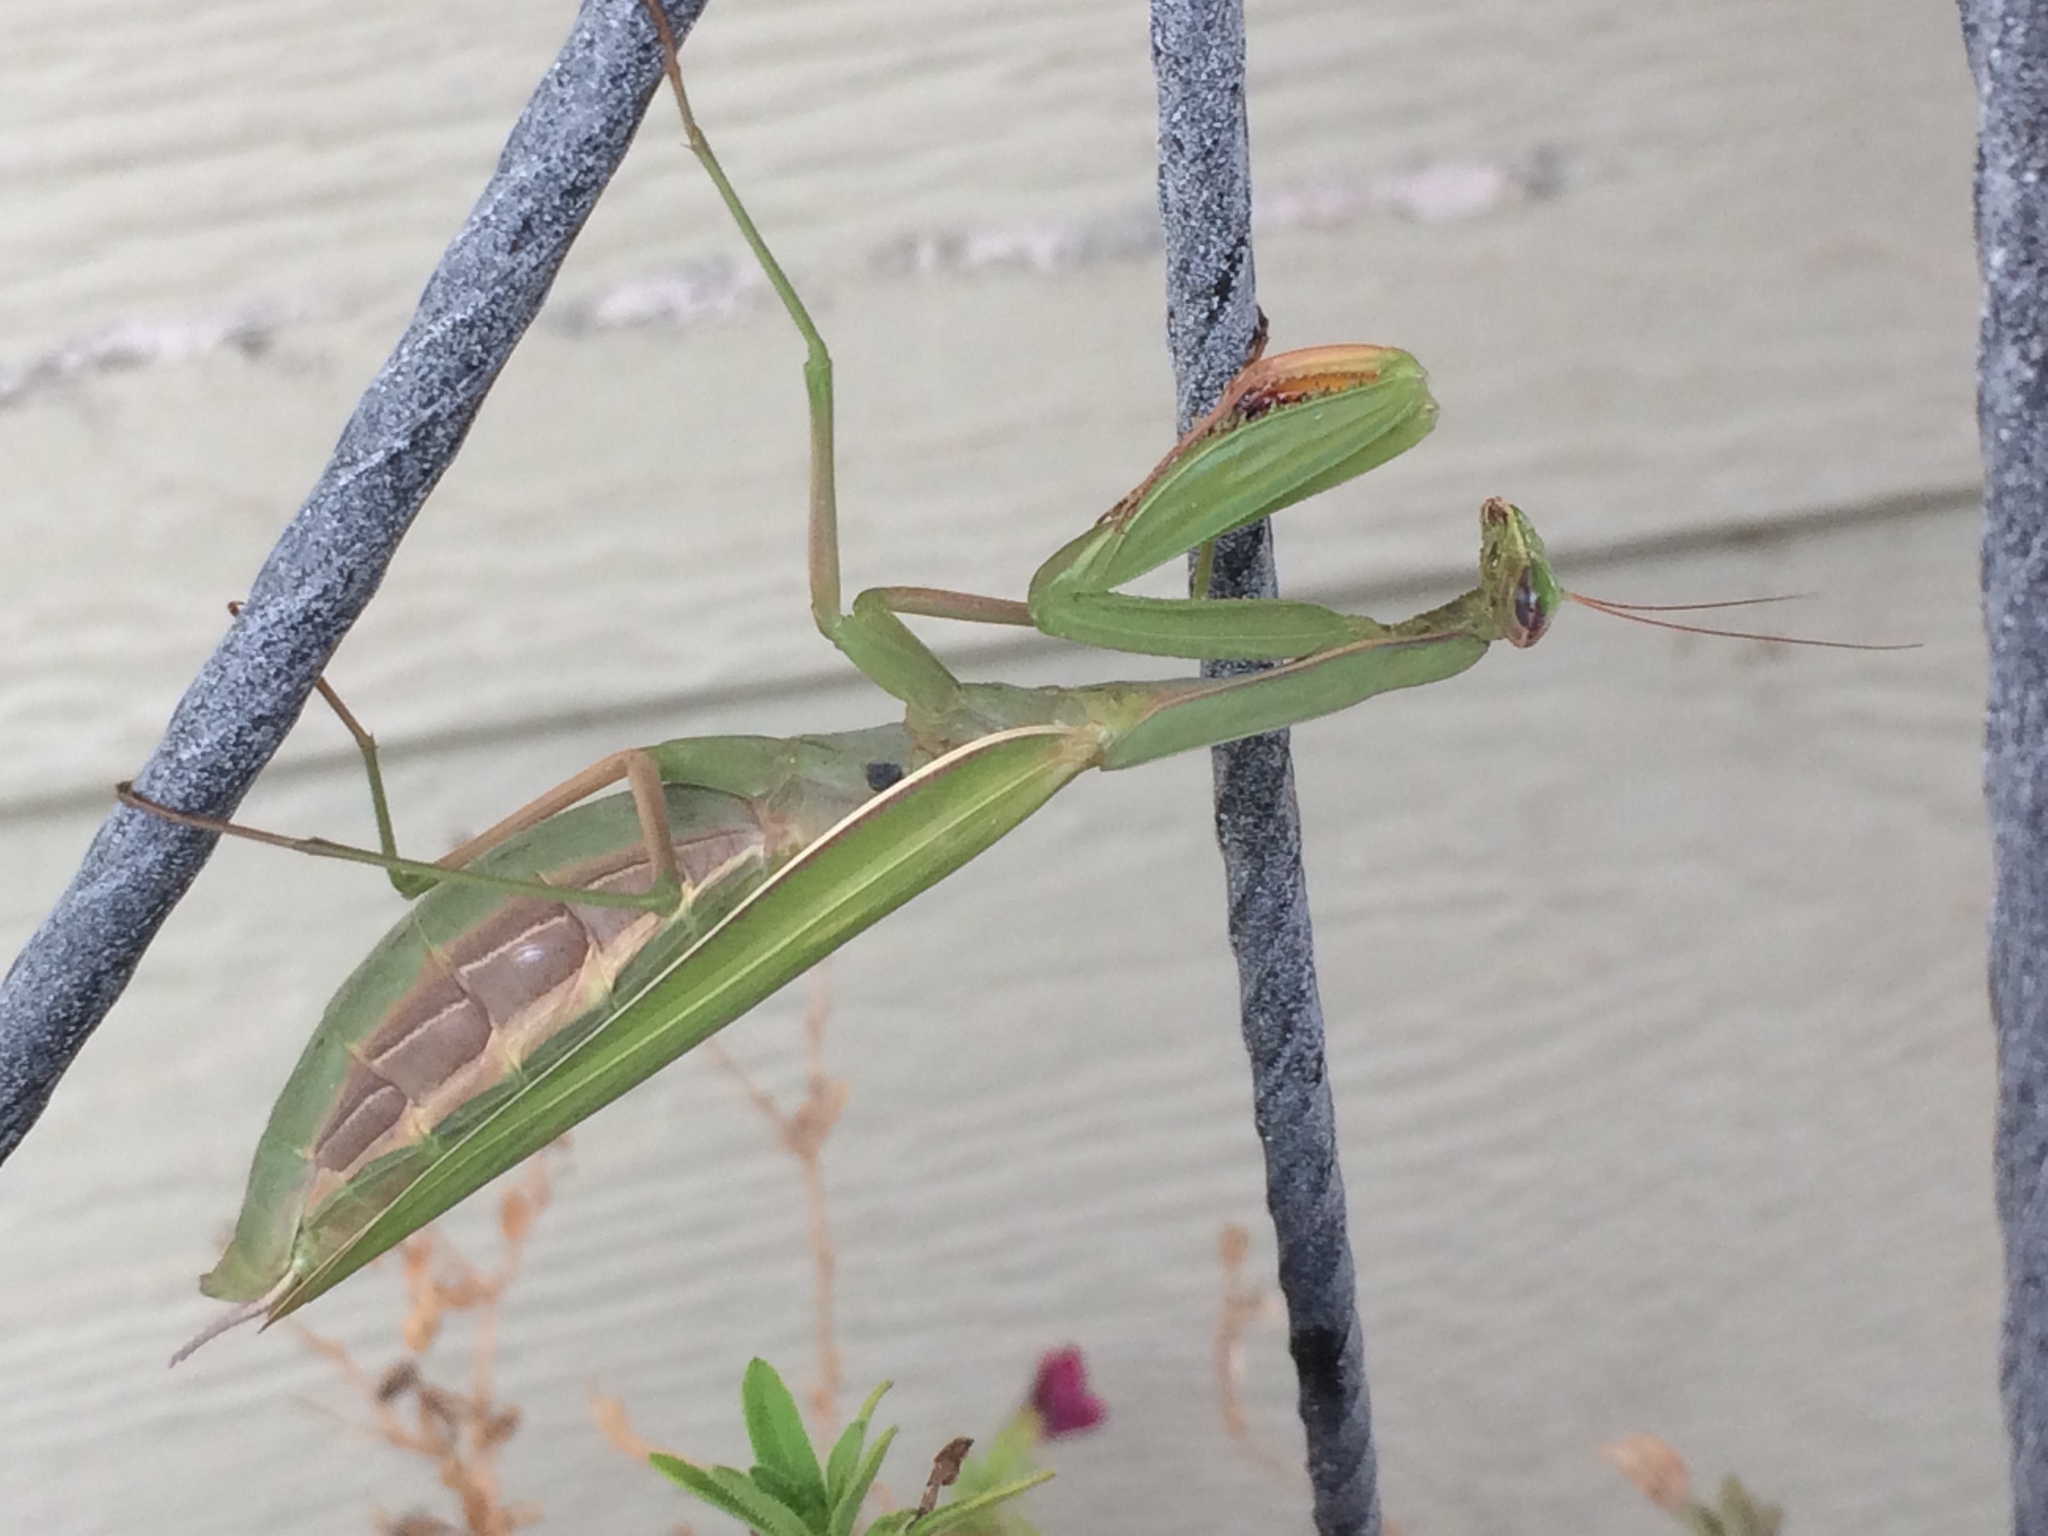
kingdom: Animalia
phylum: Arthropoda
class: Insecta
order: Mantodea
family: Mantidae
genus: Mantis
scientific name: Mantis religiosa
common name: Praying mantis
